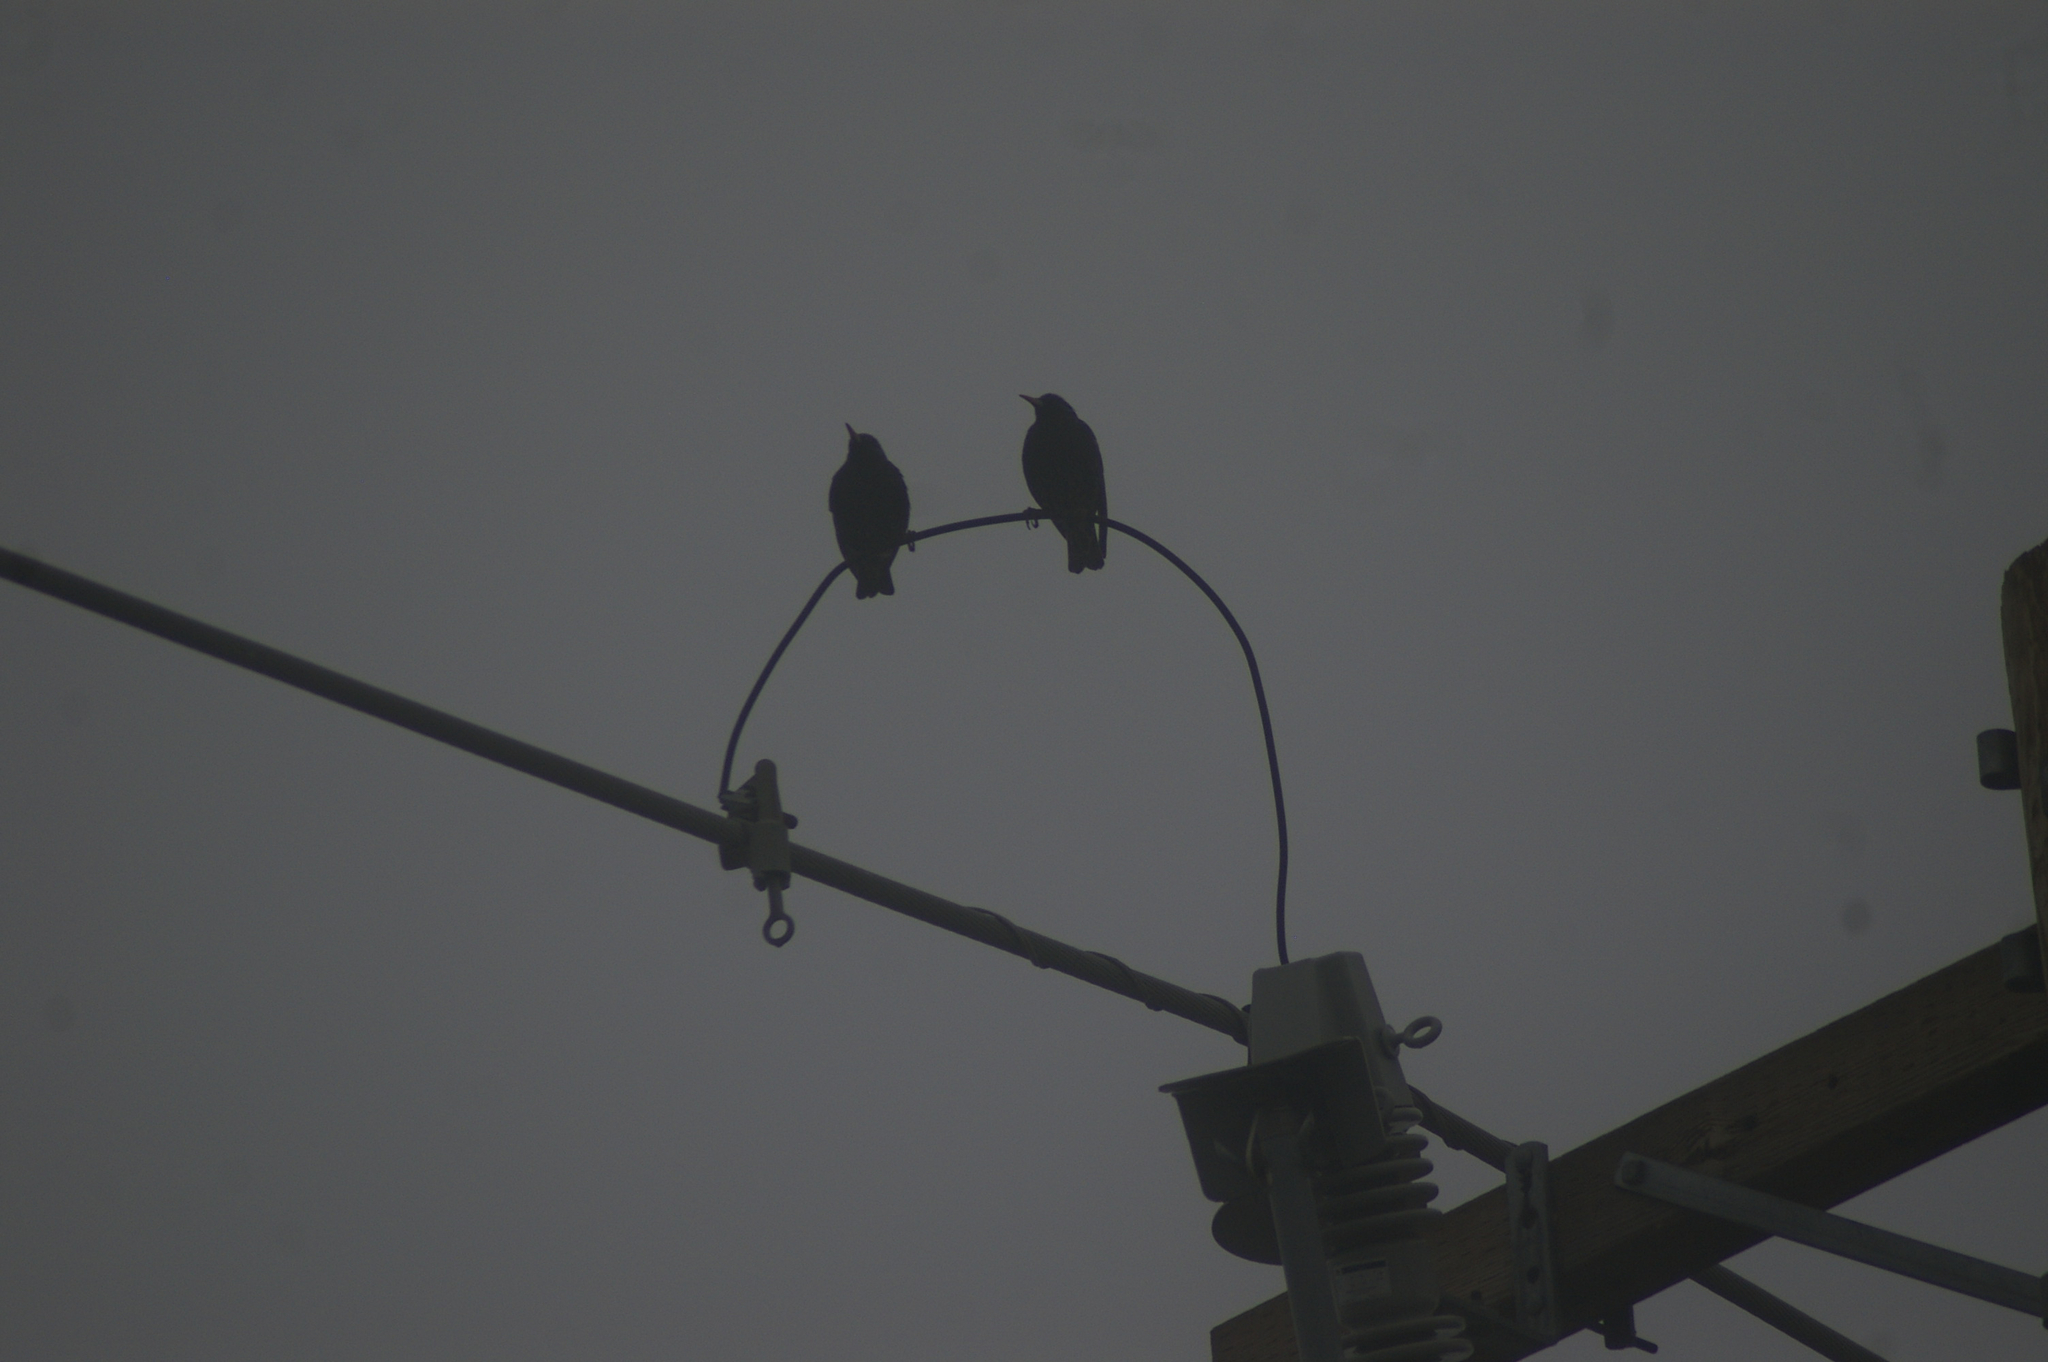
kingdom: Animalia
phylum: Chordata
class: Aves
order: Passeriformes
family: Sturnidae
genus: Sturnus
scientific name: Sturnus vulgaris
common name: Common starling
